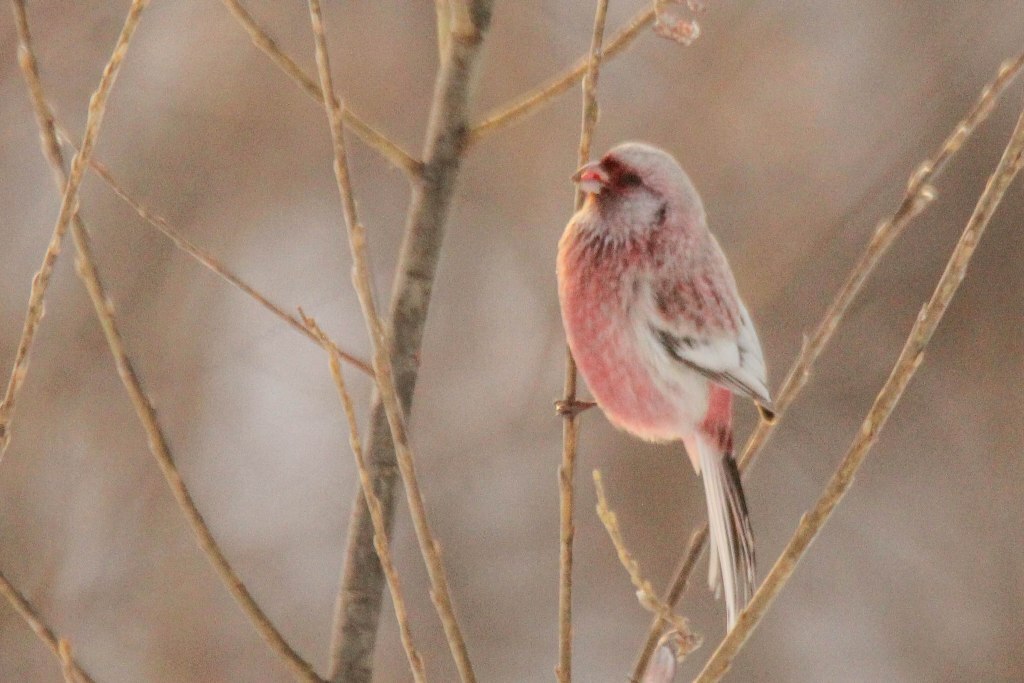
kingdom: Animalia
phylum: Chordata
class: Aves
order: Passeriformes
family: Fringillidae
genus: Carpodacus
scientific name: Carpodacus sibiricus
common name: Long-tailed rosefinch
